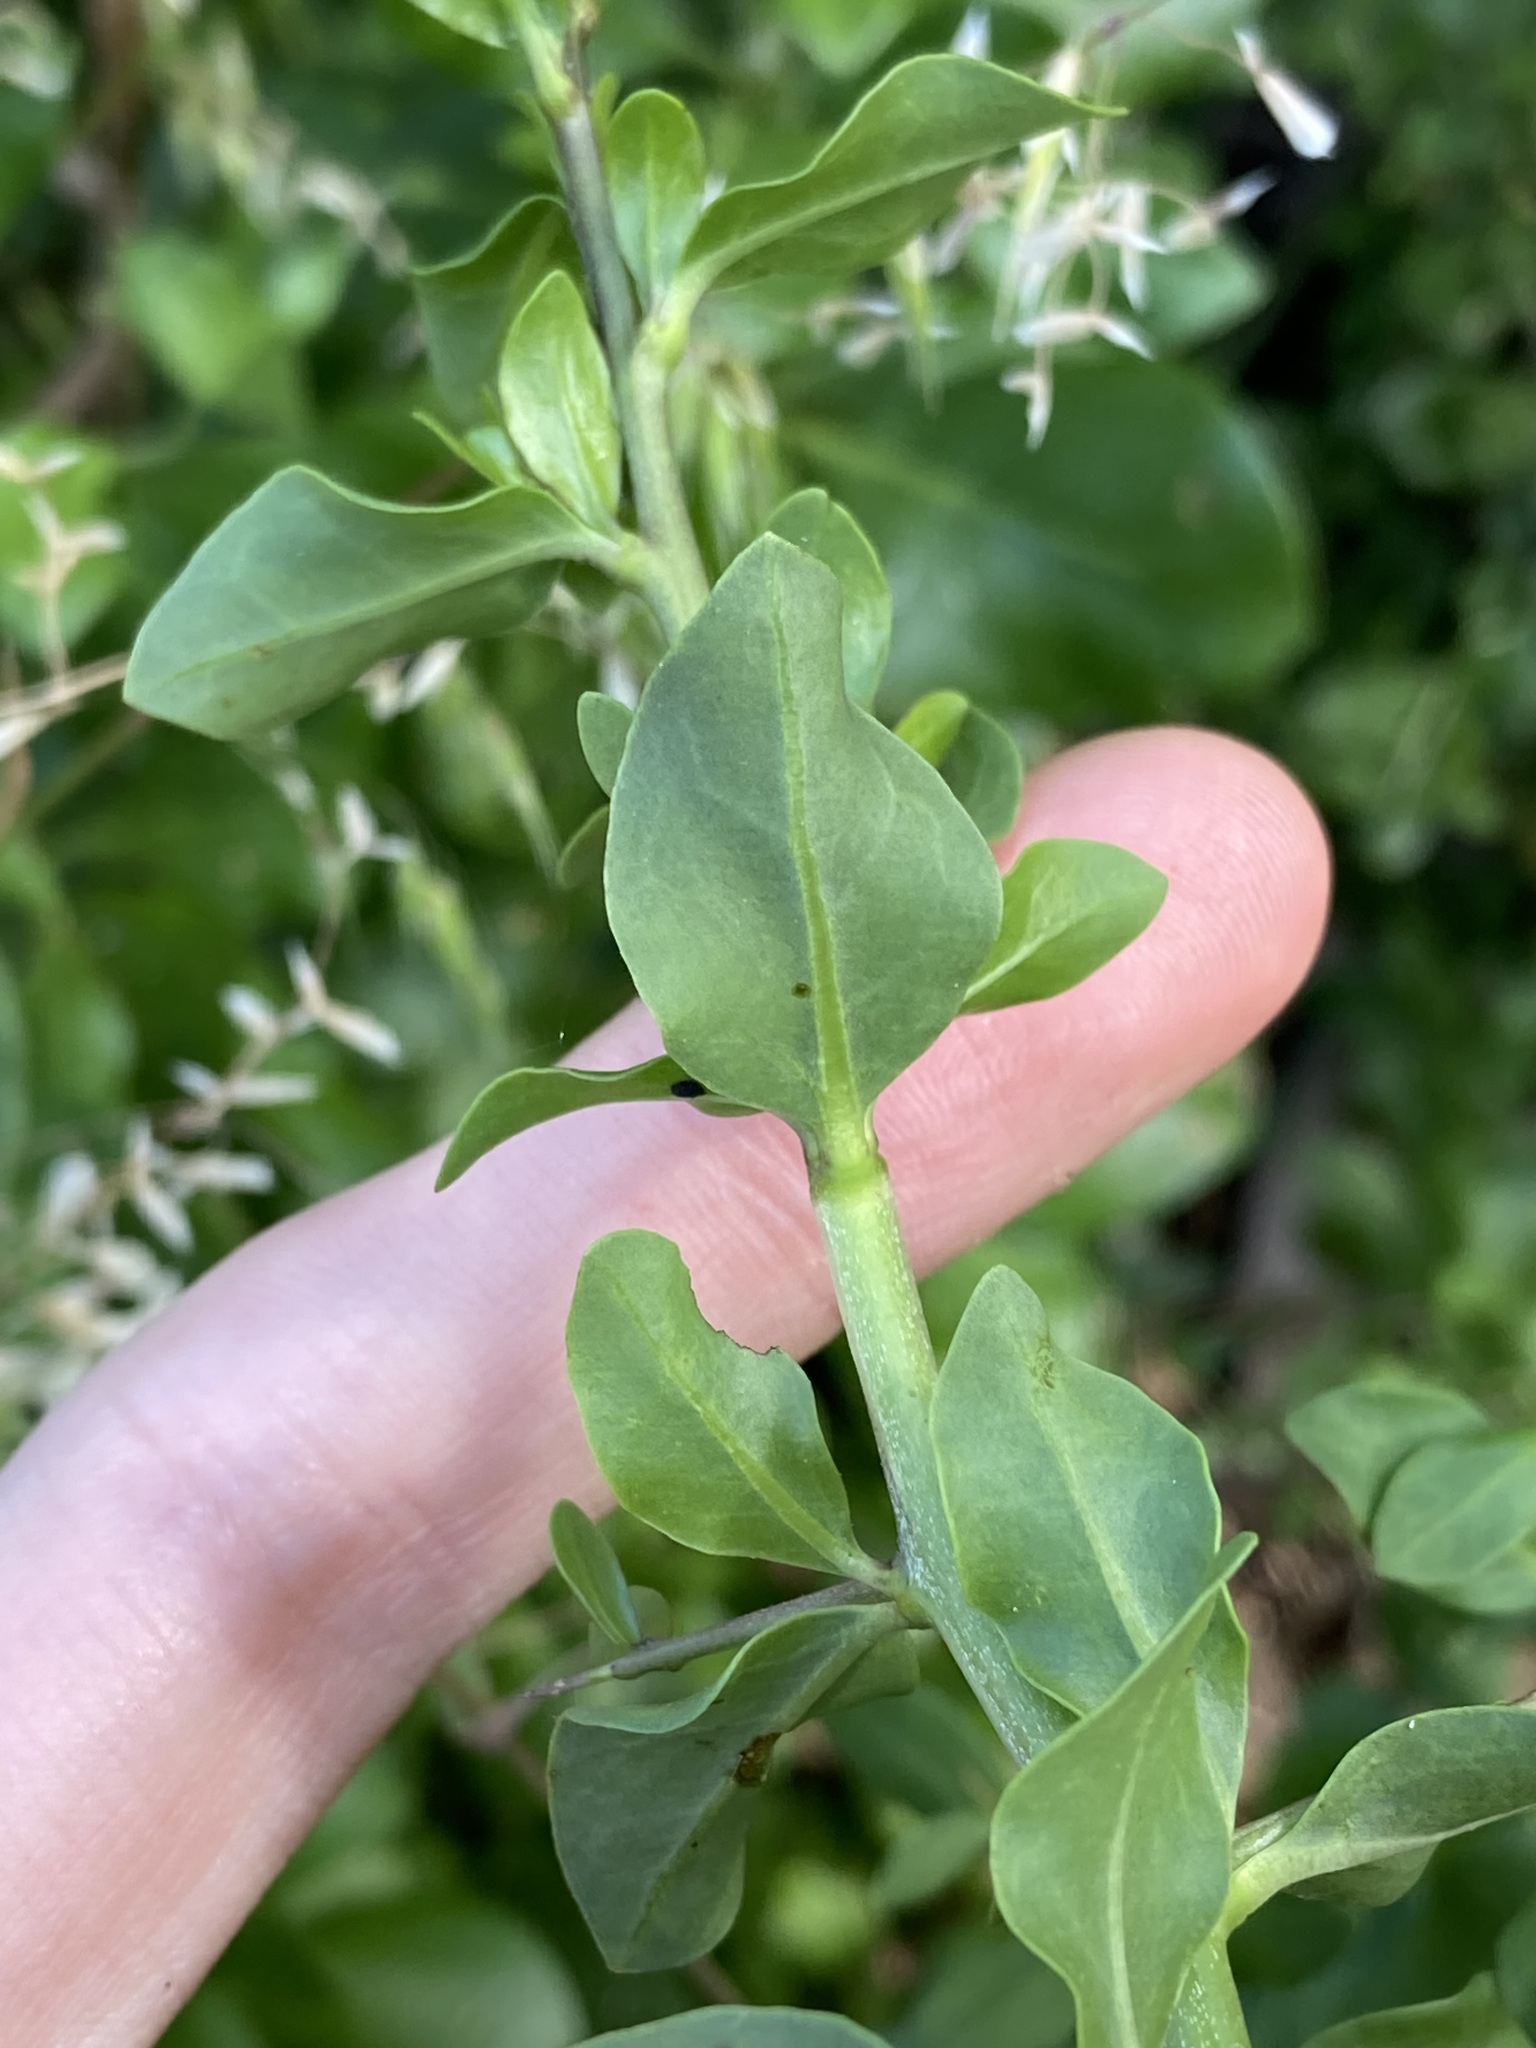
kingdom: Plantae
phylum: Tracheophyta
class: Magnoliopsida
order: Solanales
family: Solanaceae
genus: Lycium
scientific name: Lycium ferocissimum
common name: African boxthorn
